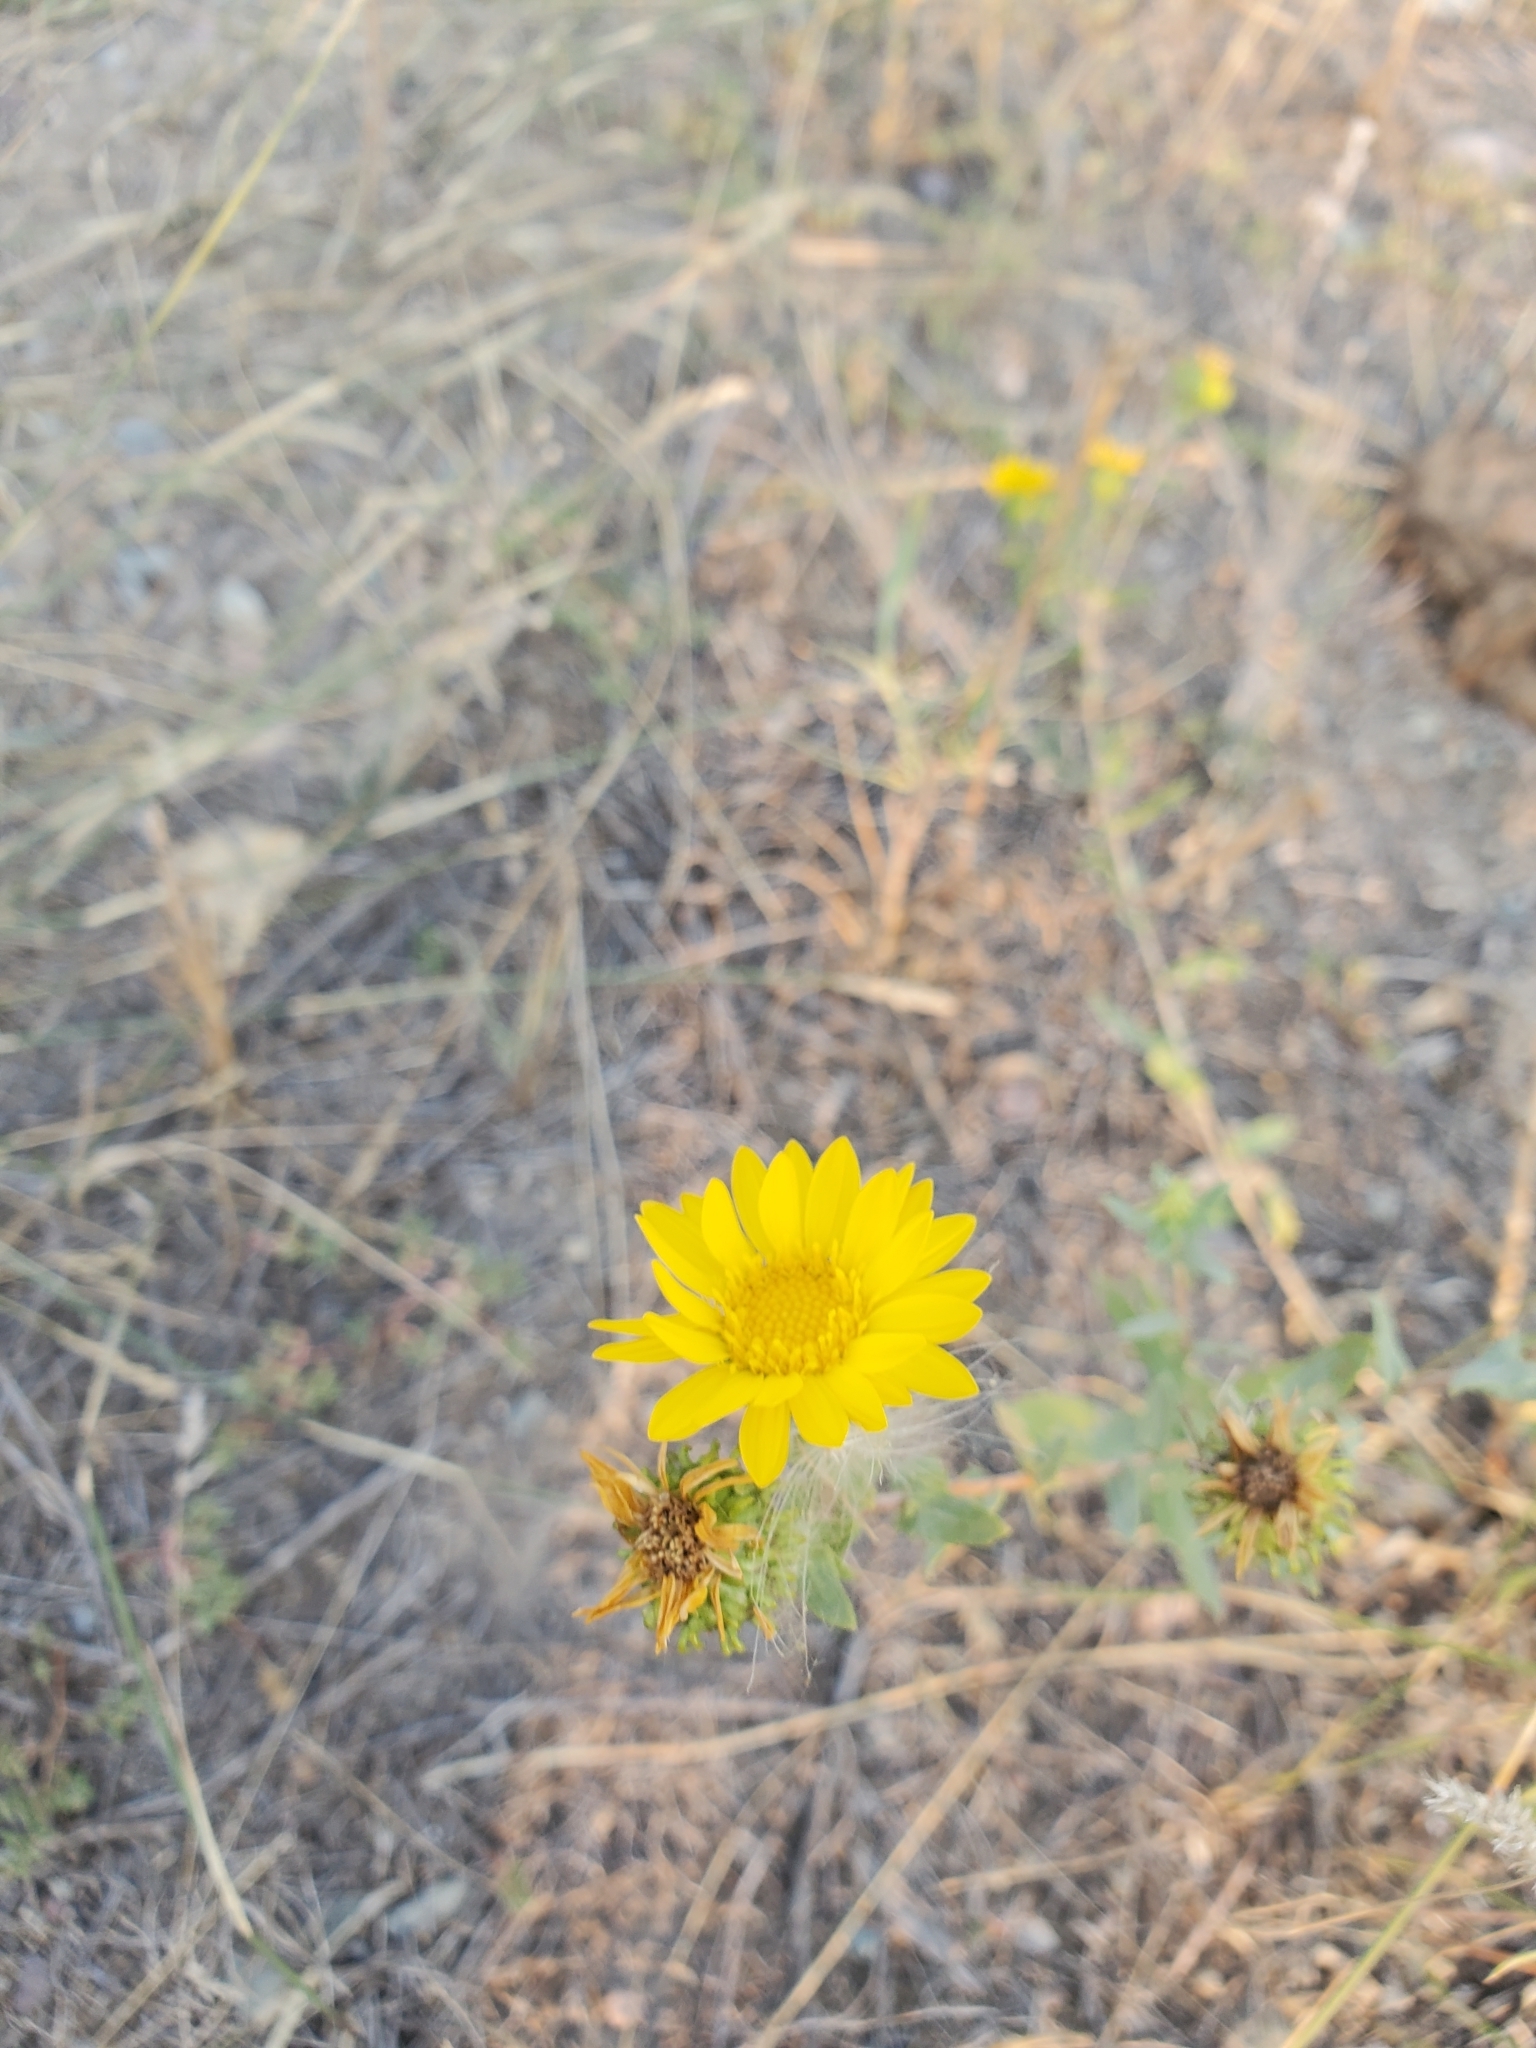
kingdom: Plantae
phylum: Tracheophyta
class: Magnoliopsida
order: Asterales
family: Asteraceae
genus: Grindelia
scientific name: Grindelia squarrosa
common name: Curly-cup gumweed
